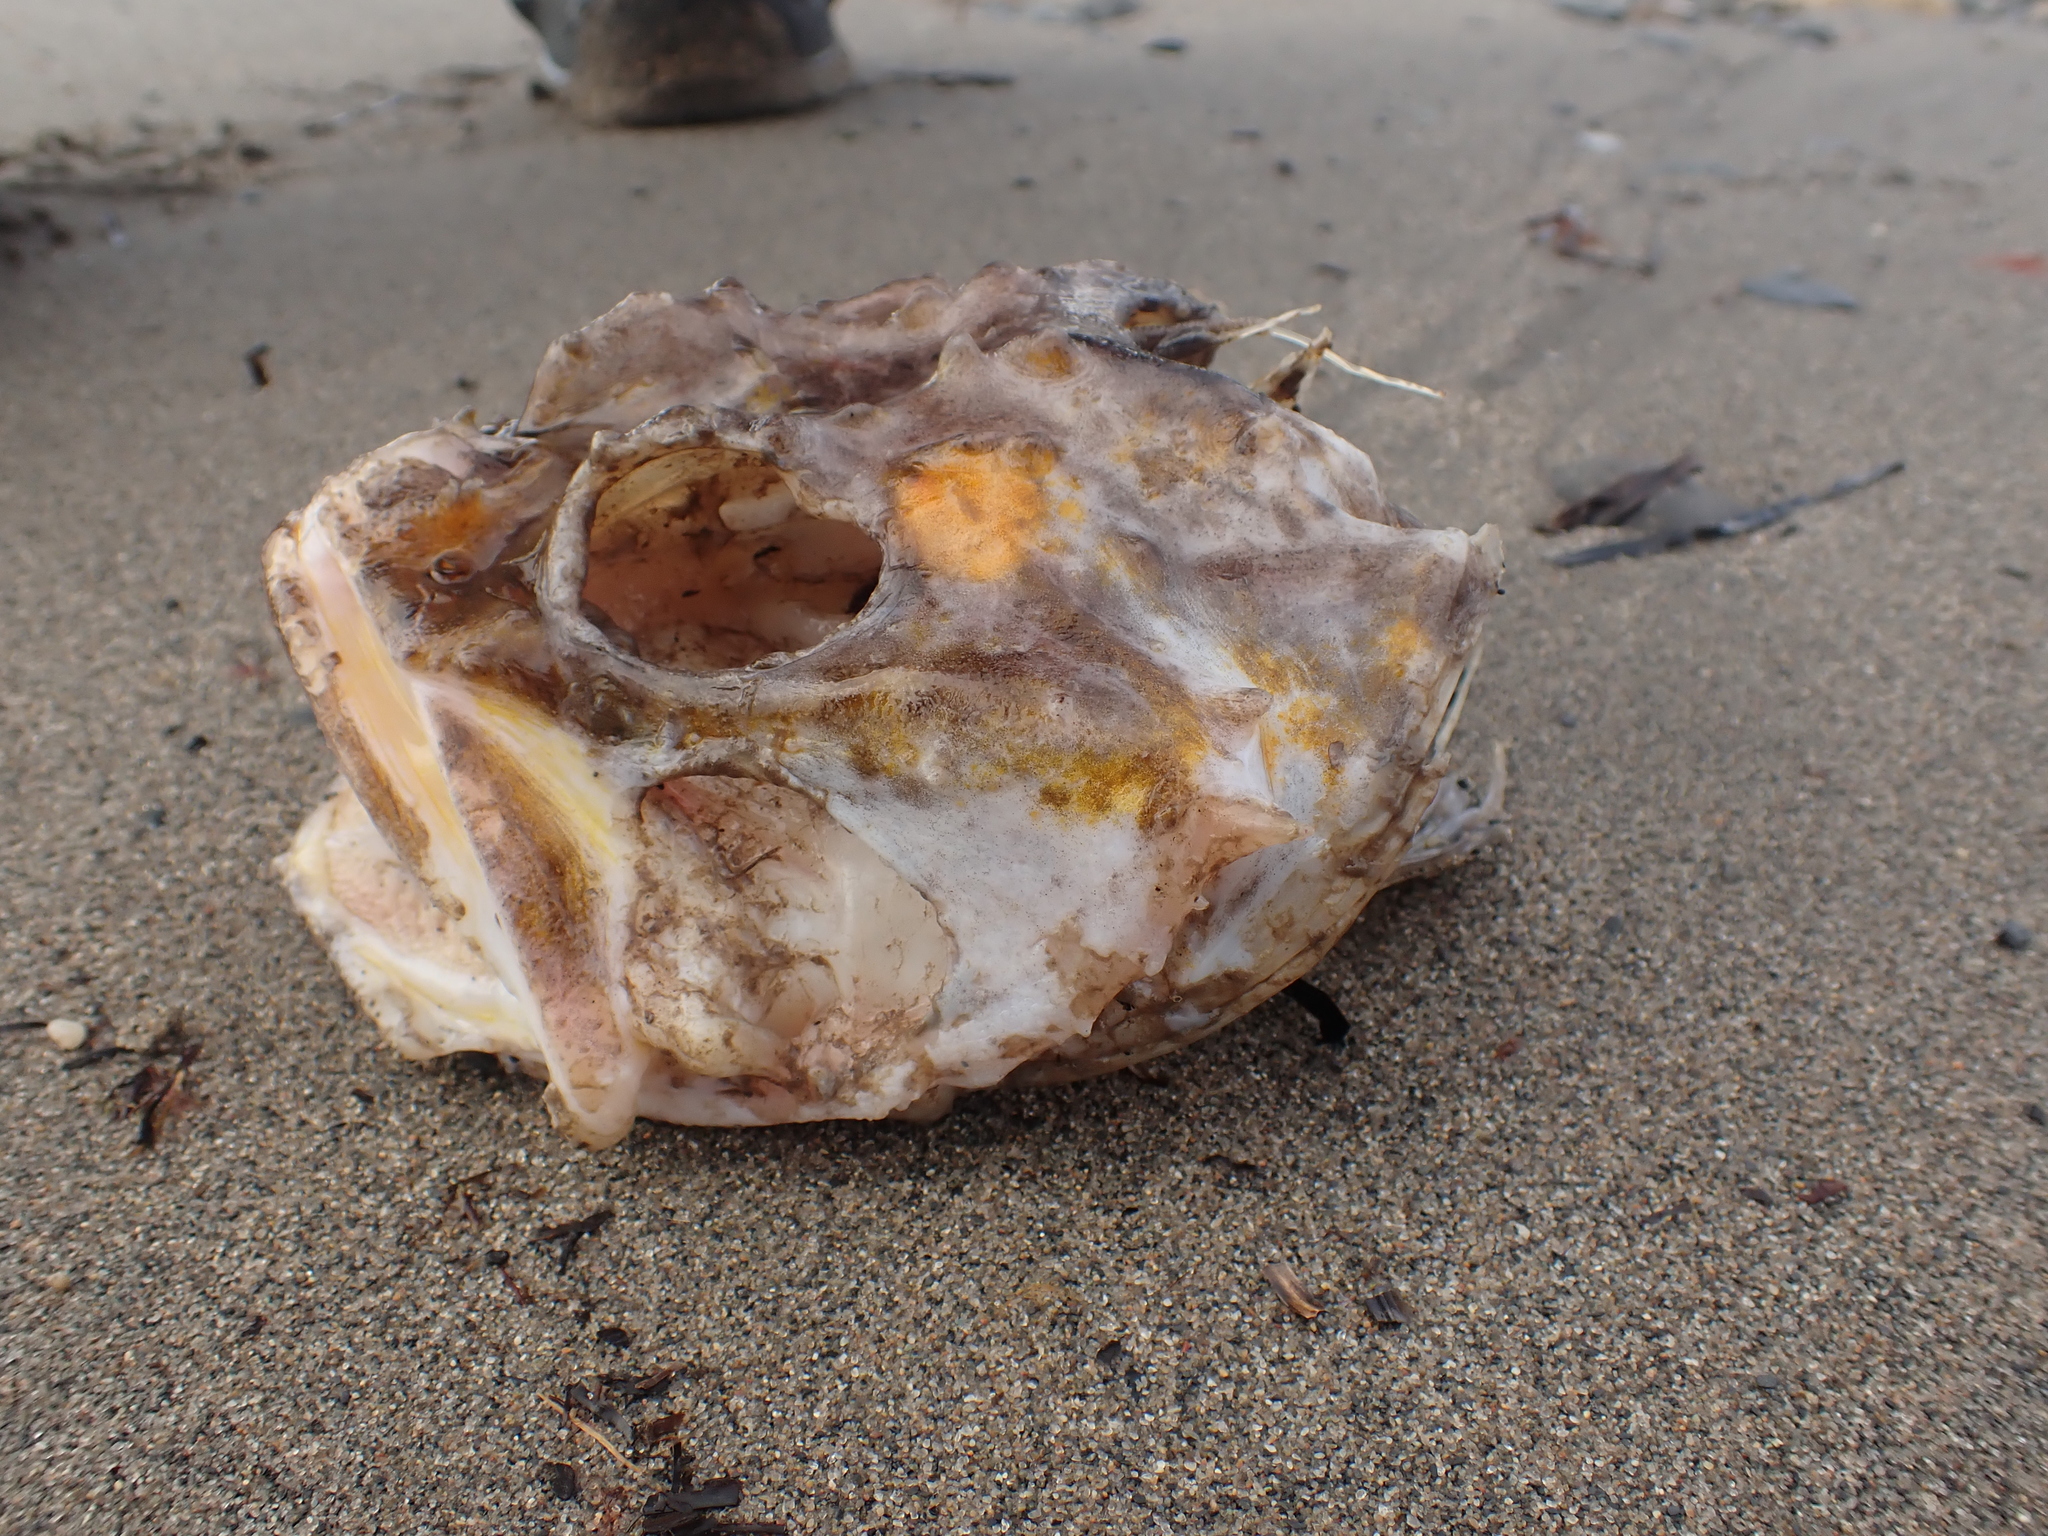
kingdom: Animalia
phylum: Chordata
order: Scorpaeniformes
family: Cottidae
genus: Myoxocephalus
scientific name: Myoxocephalus scorpius
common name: Shorthorn sculpin
